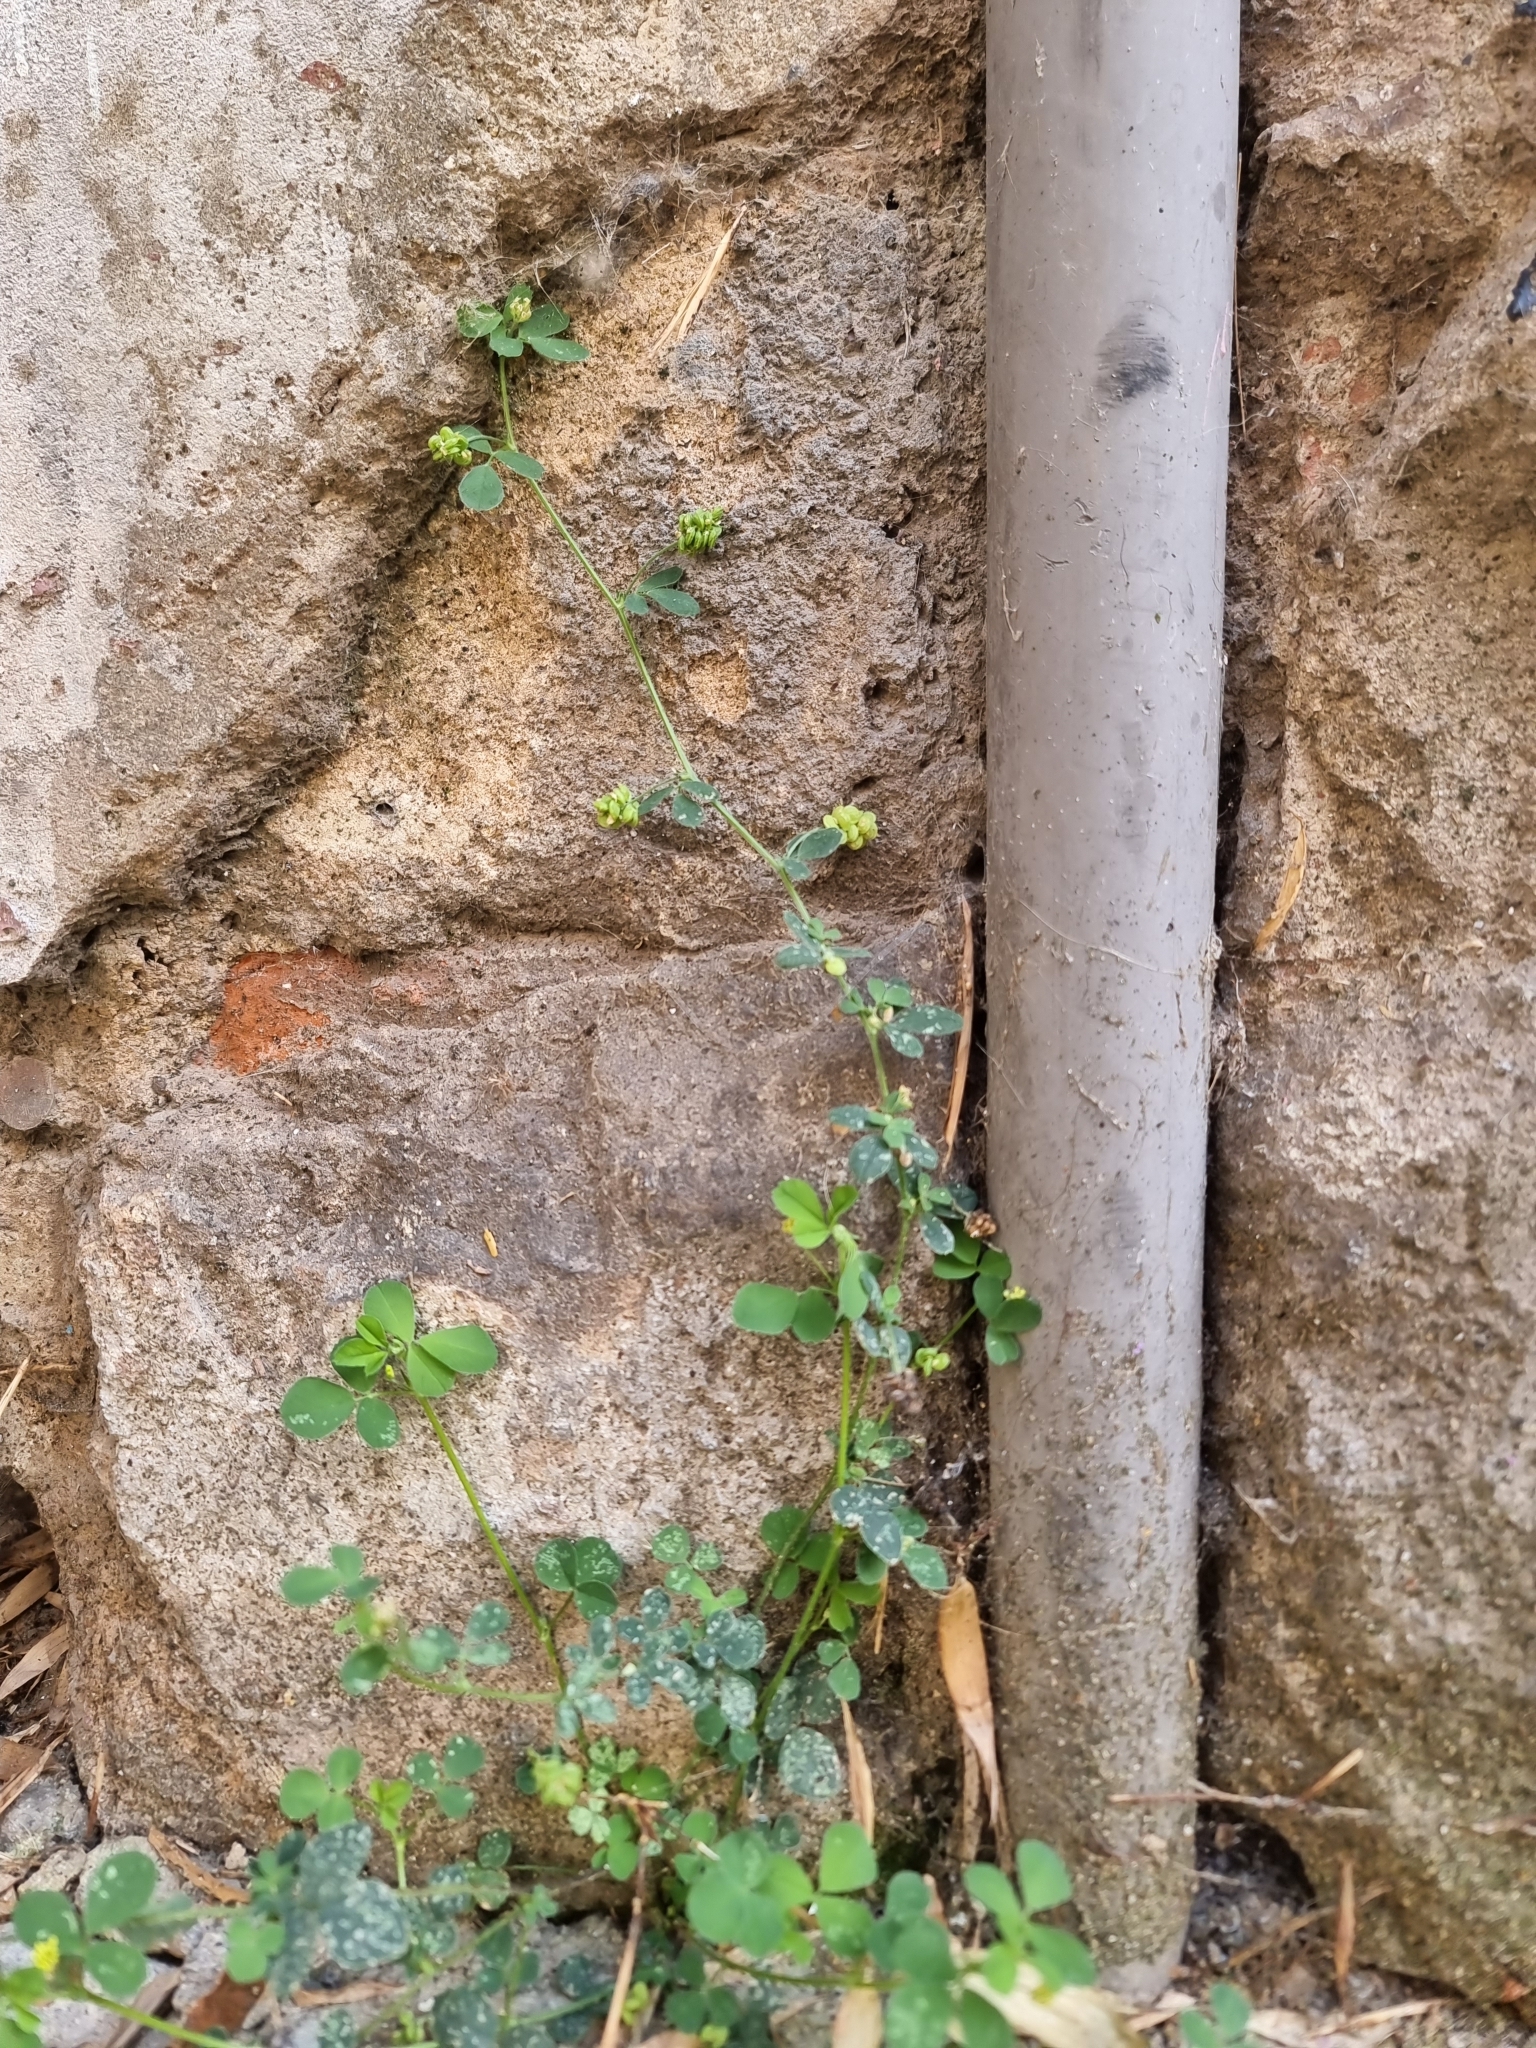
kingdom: Plantae
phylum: Tracheophyta
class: Magnoliopsida
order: Fabales
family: Fabaceae
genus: Medicago
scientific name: Medicago lupulina
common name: Black medick
